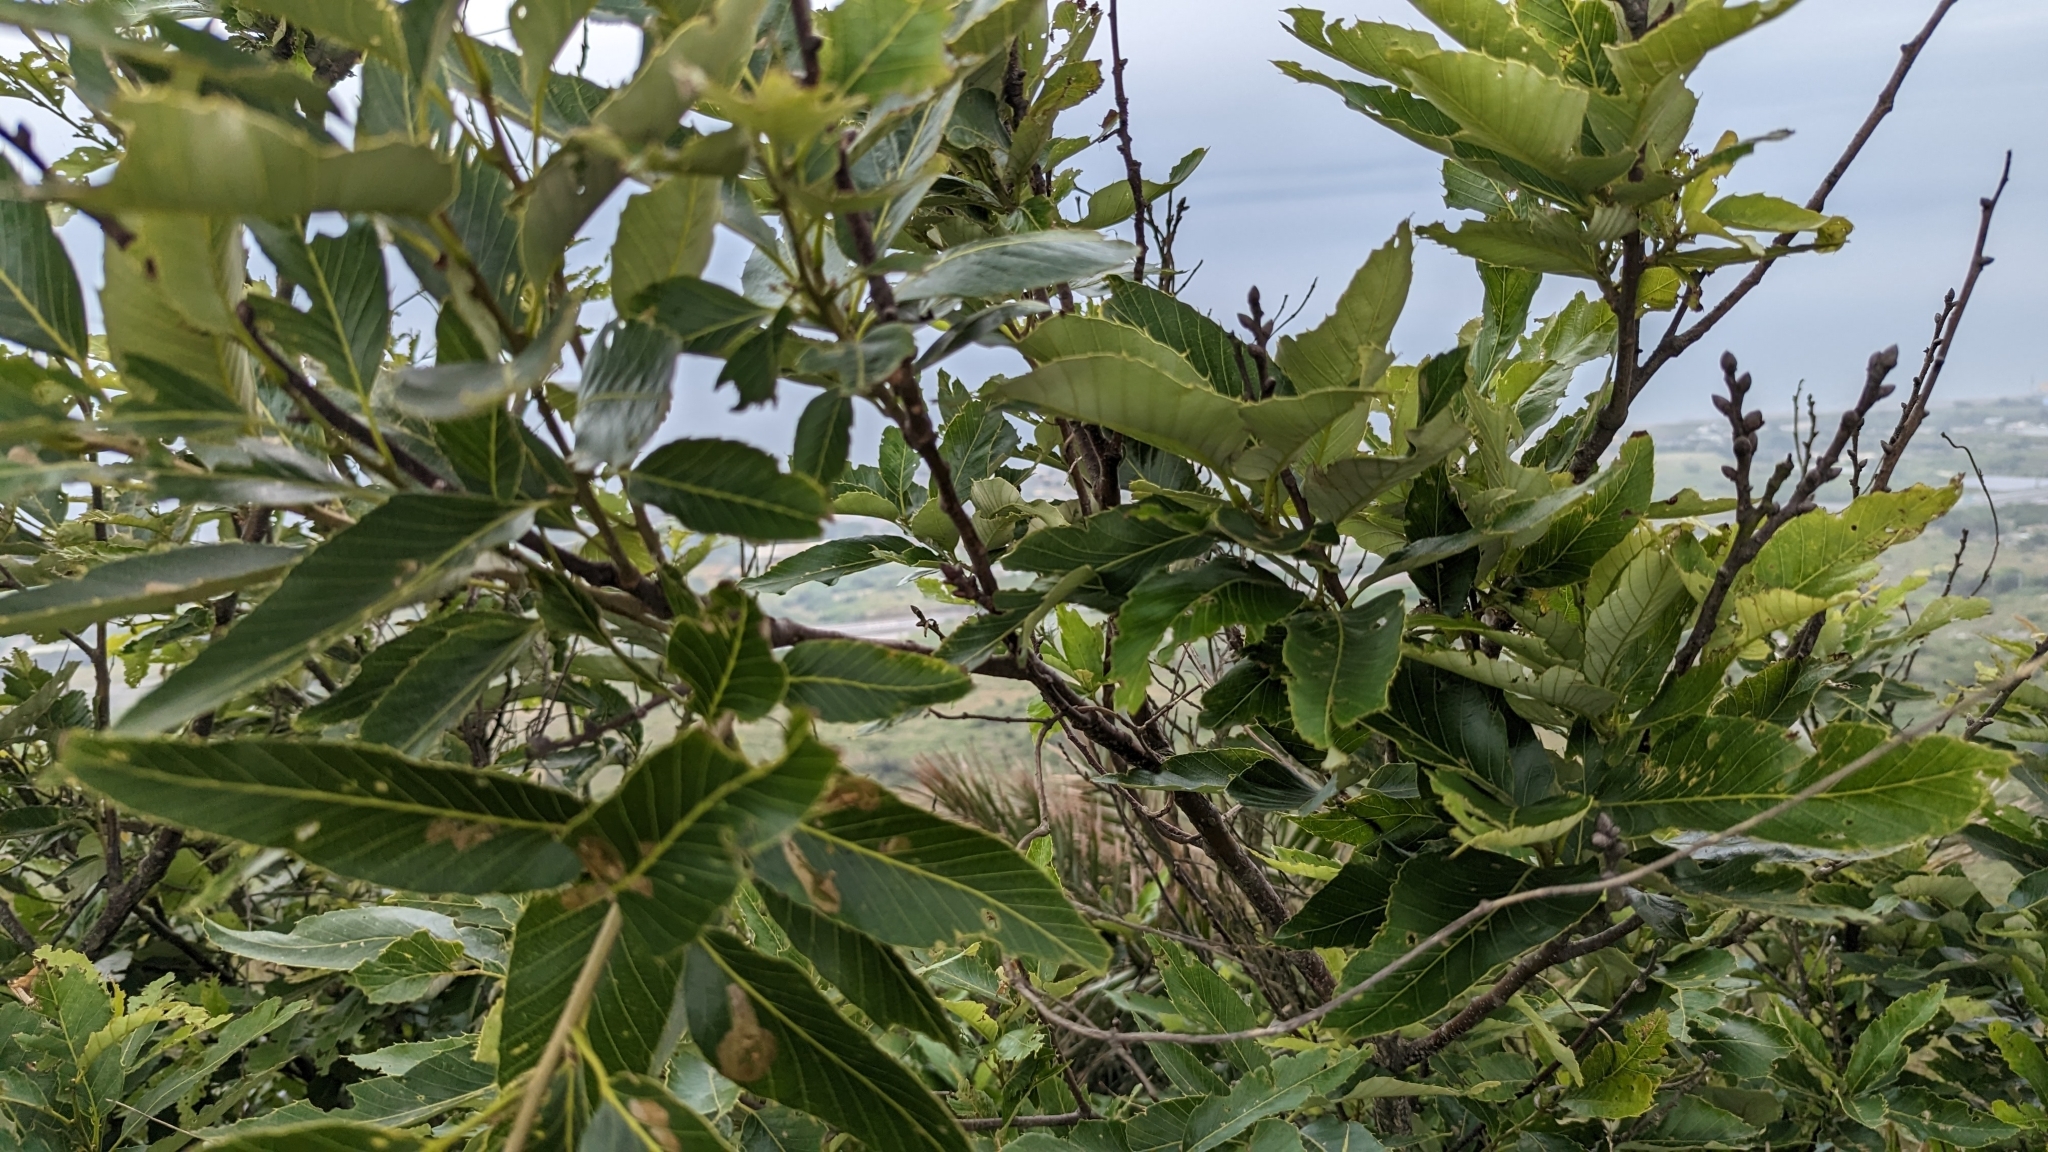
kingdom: Plantae
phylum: Tracheophyta
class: Magnoliopsida
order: Fagales
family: Fagaceae
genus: Quercus
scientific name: Quercus variabilis
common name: Chinese cork oak
